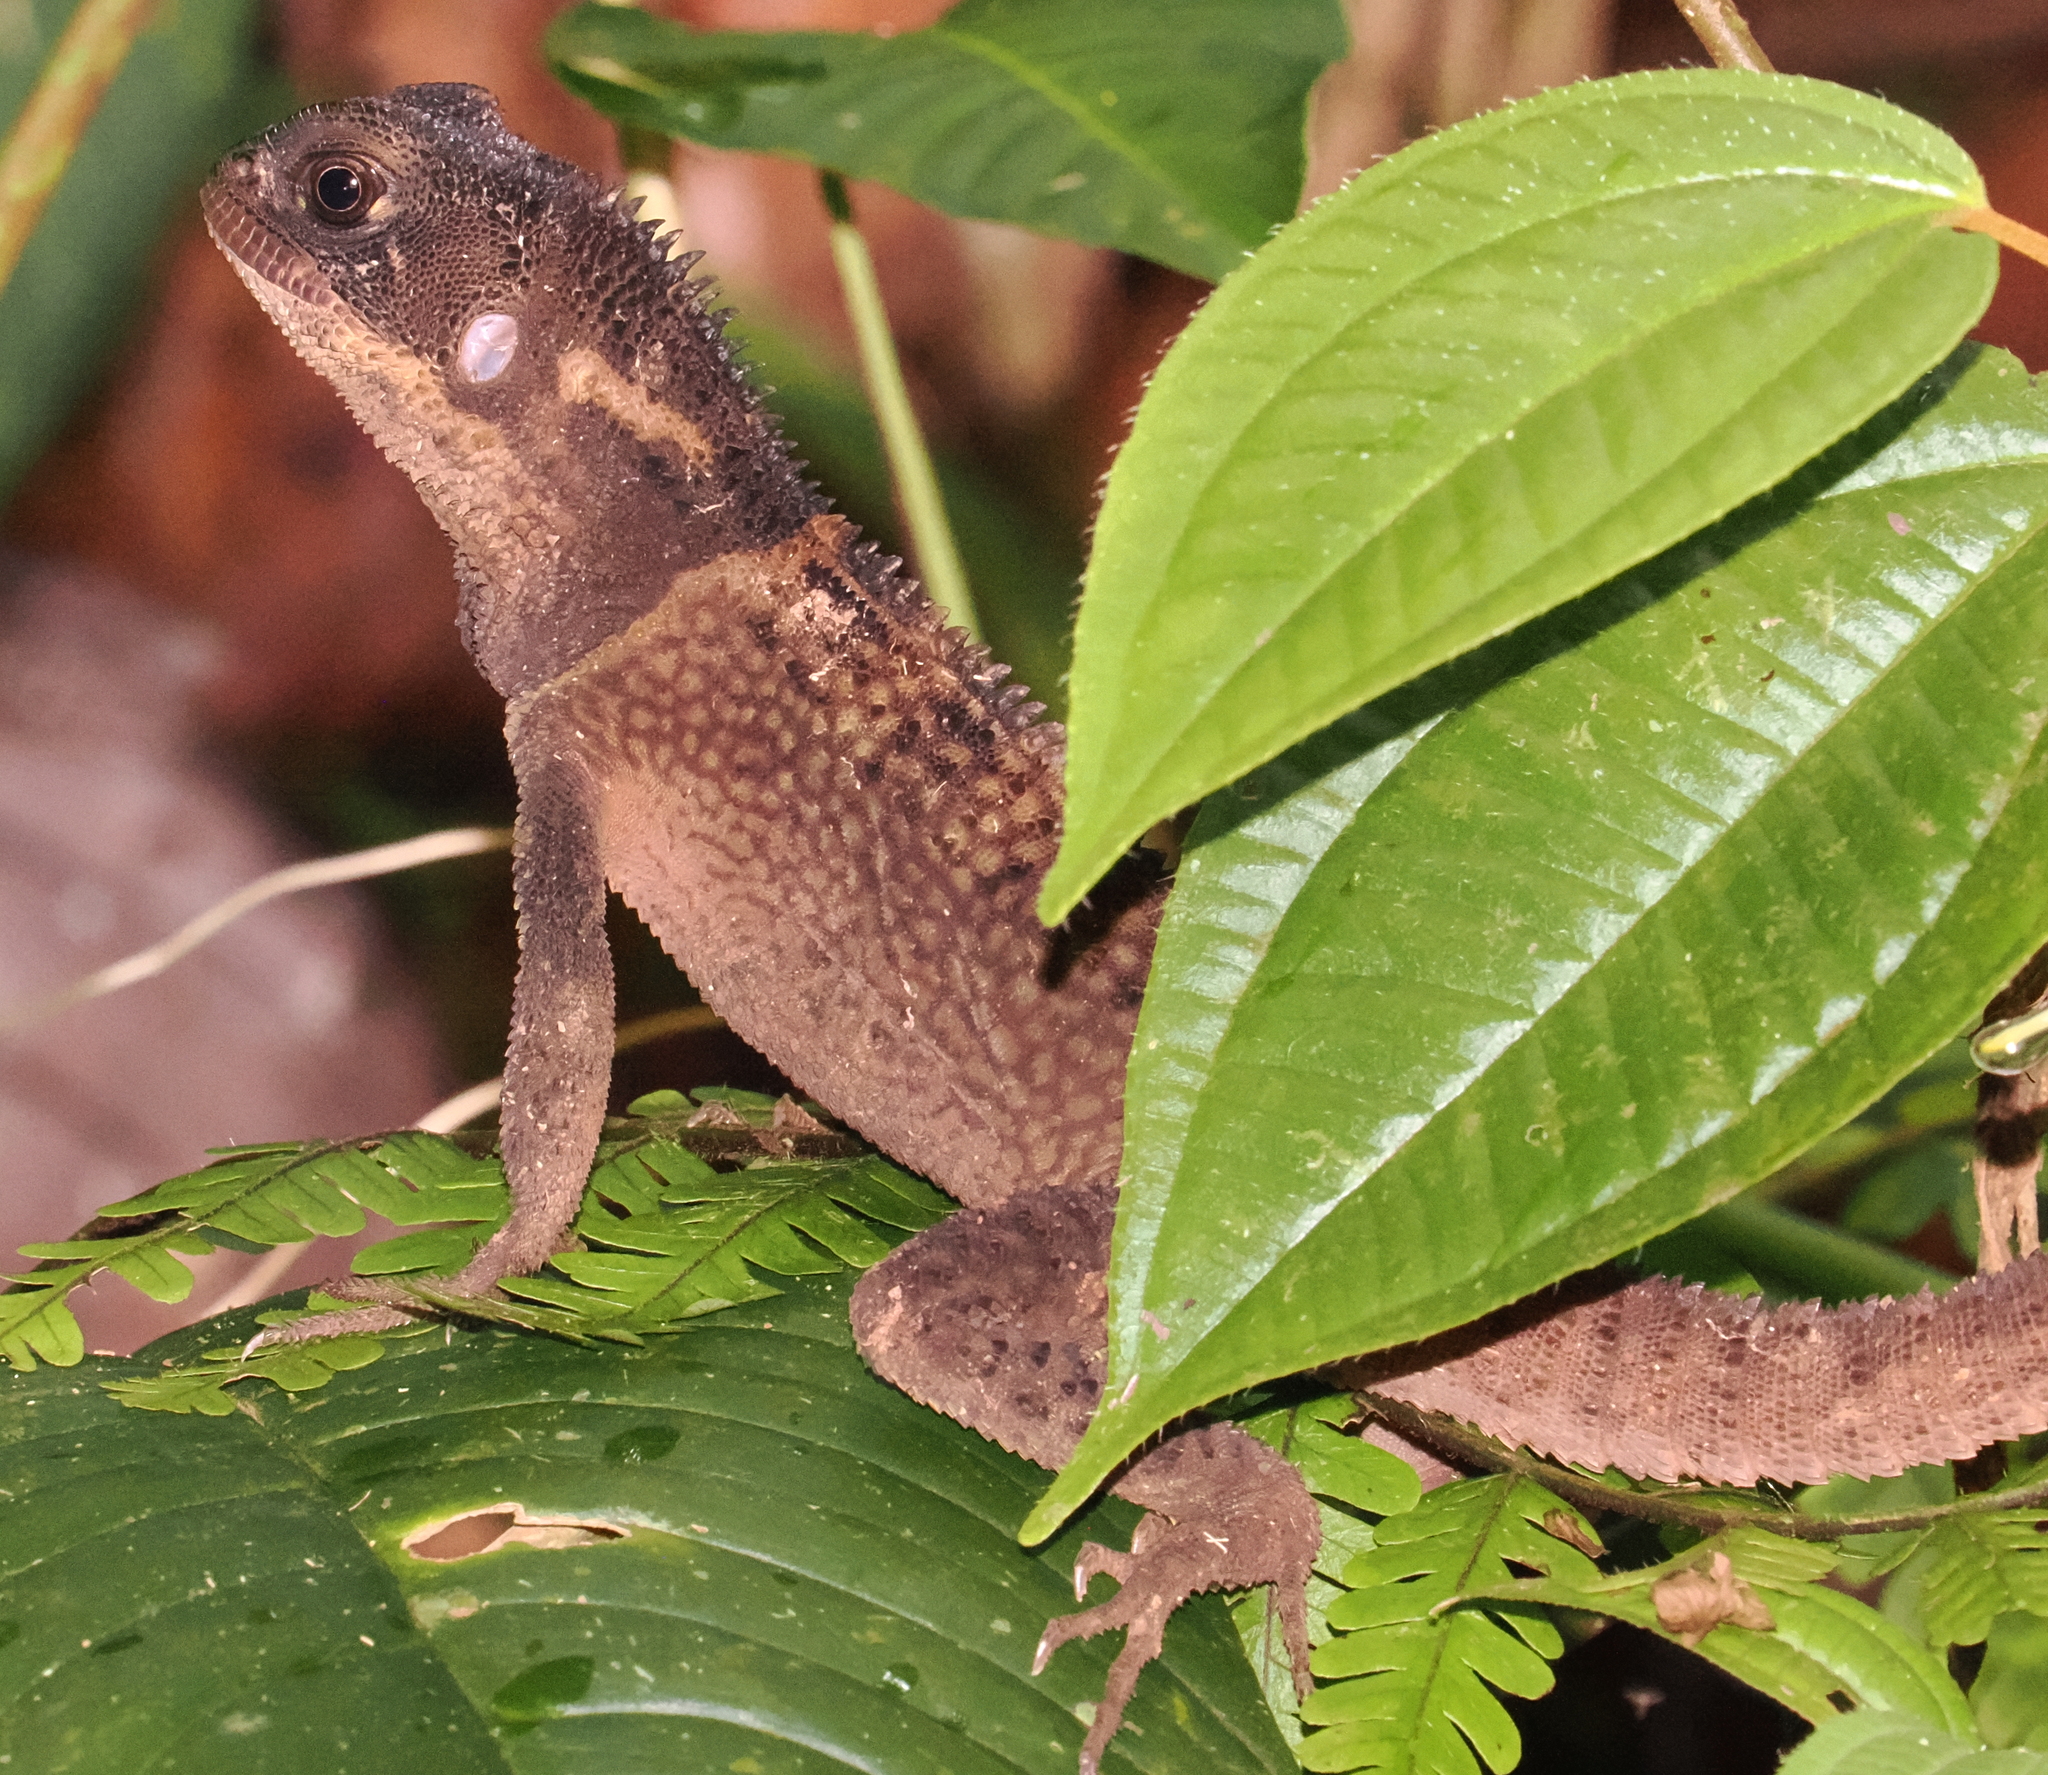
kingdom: Animalia
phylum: Chordata
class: Squamata
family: Hoplocercidae
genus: Enyalioides
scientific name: Enyalioides heterolepis
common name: Bocourt's dwarf iguana
